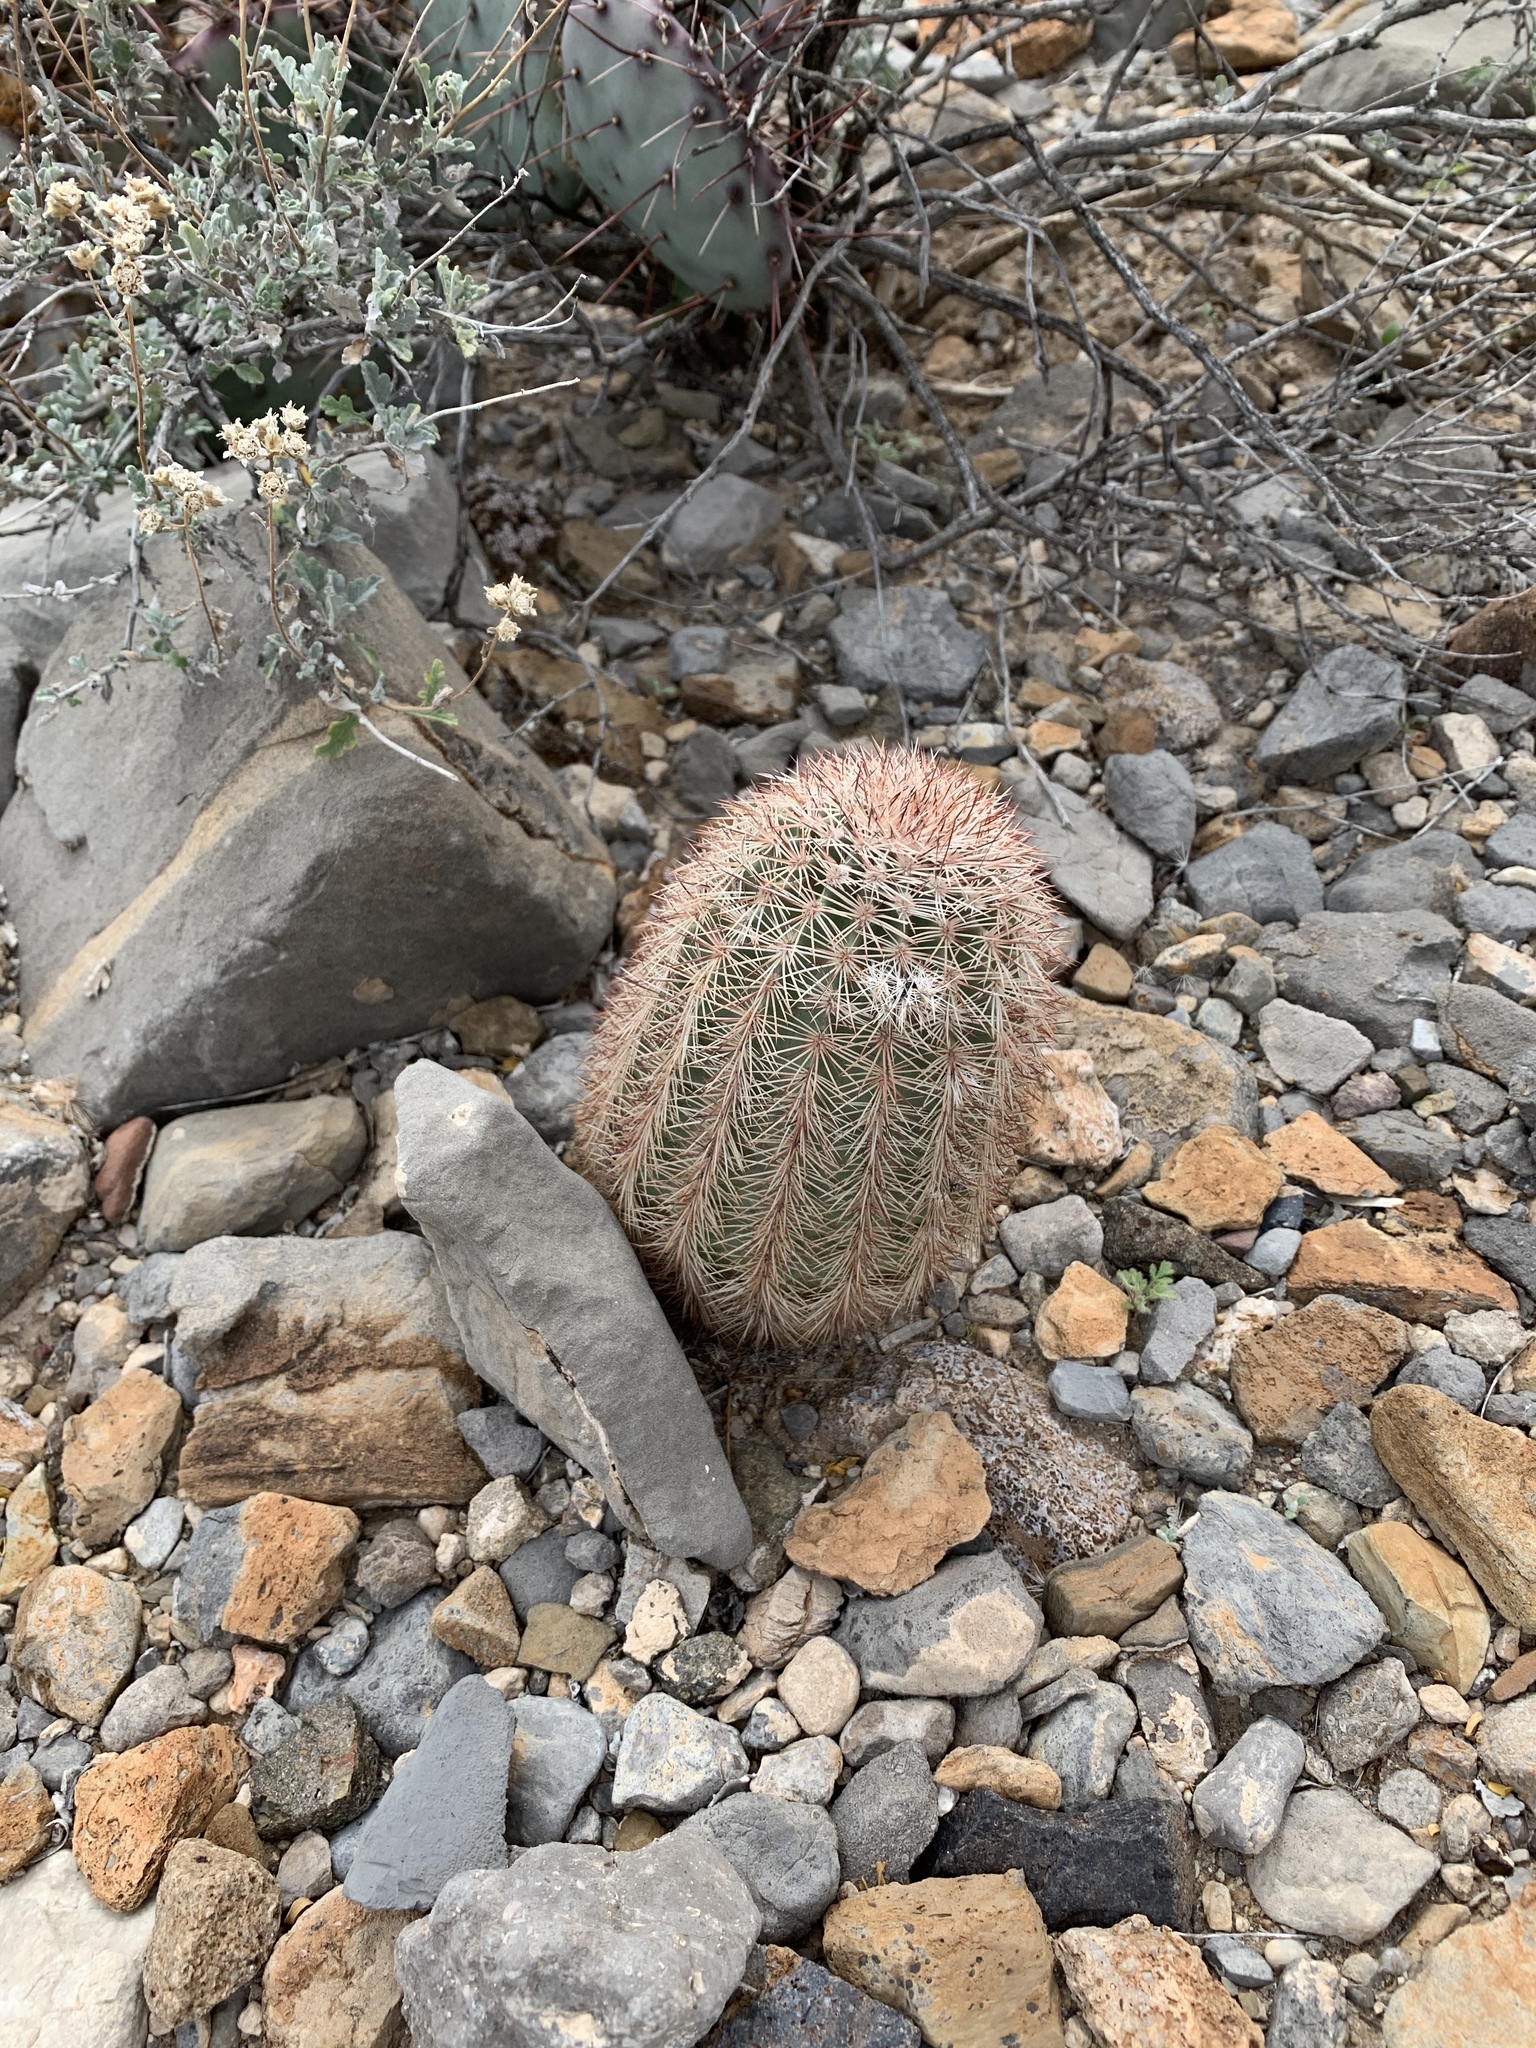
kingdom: Plantae
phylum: Tracheophyta
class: Magnoliopsida
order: Caryophyllales
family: Cactaceae
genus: Echinocereus
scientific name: Echinocereus dasyacanthus
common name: Spiny hedgehog cactus
